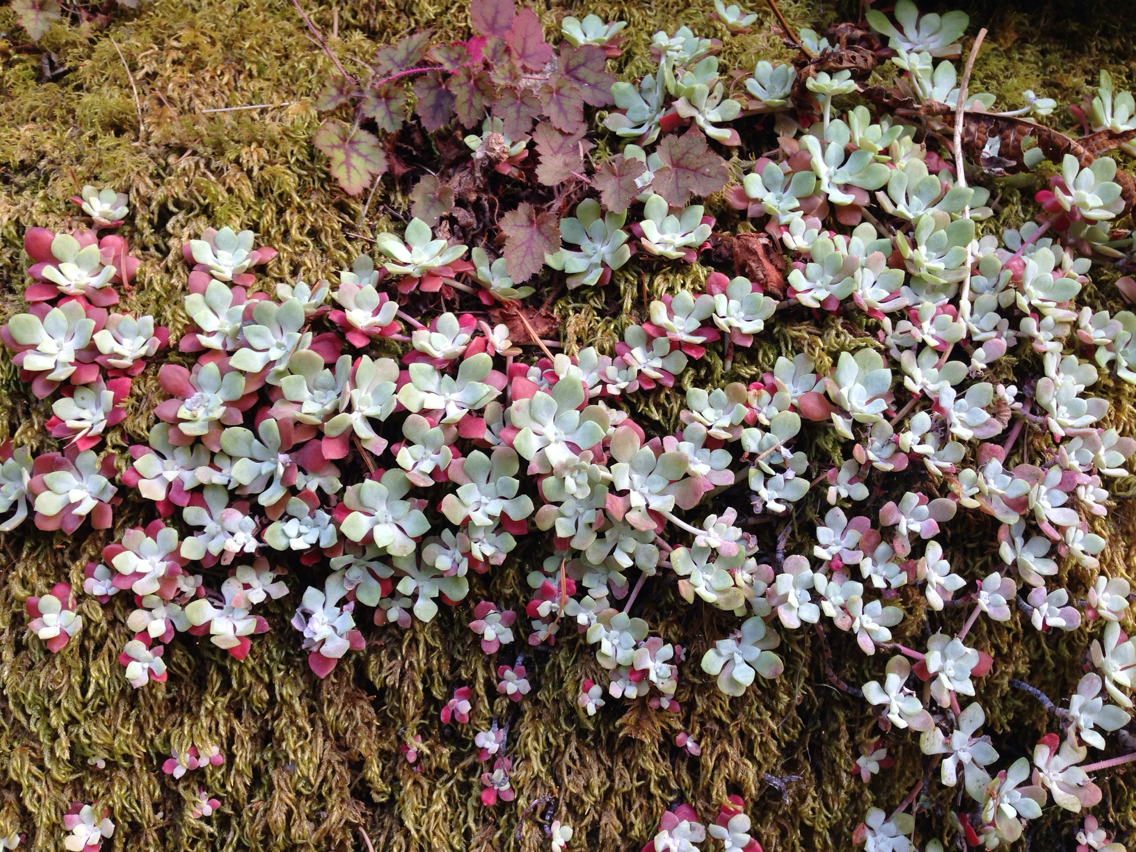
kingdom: Plantae
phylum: Tracheophyta
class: Magnoliopsida
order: Saxifragales
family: Crassulaceae
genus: Sedum
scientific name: Sedum spathulifolium
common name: Colorado stonecrop
